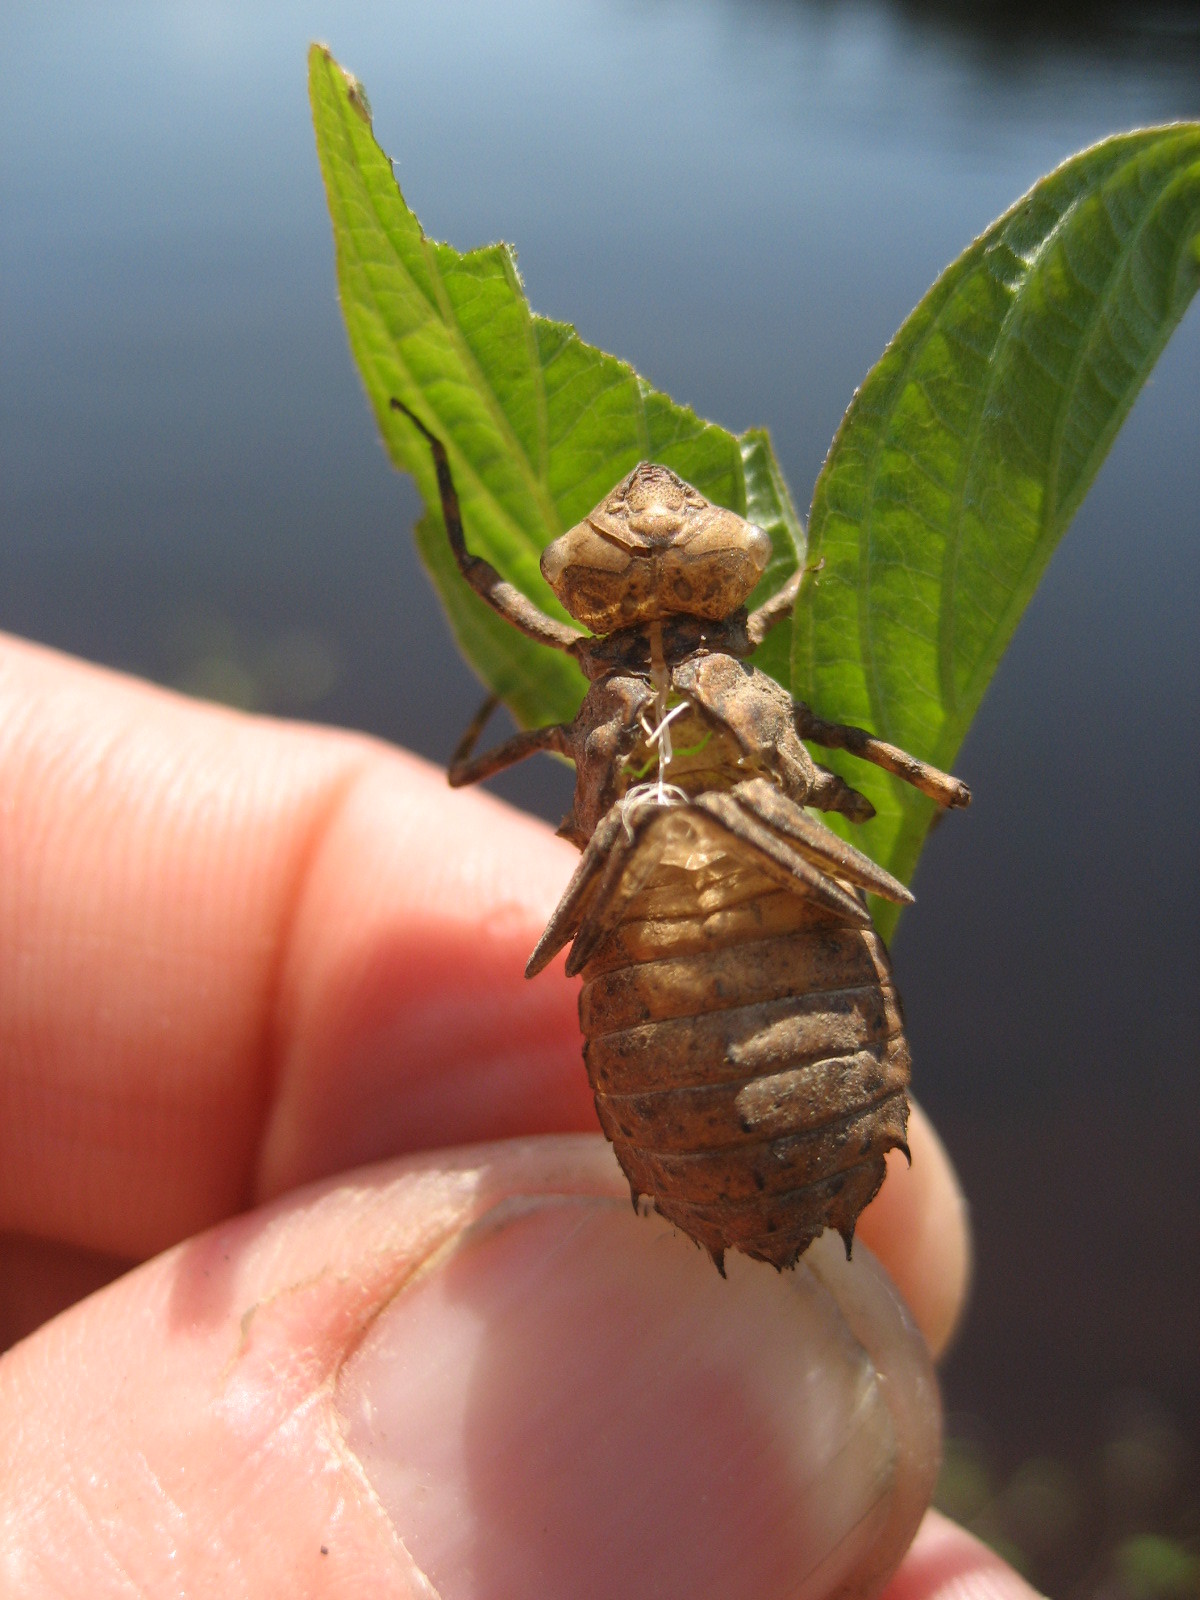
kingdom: Animalia
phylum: Arthropoda
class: Insecta
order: Odonata
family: Corduliidae
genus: Neurocordulia
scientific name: Neurocordulia michaeli
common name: Broad-tailed shadowdragon
